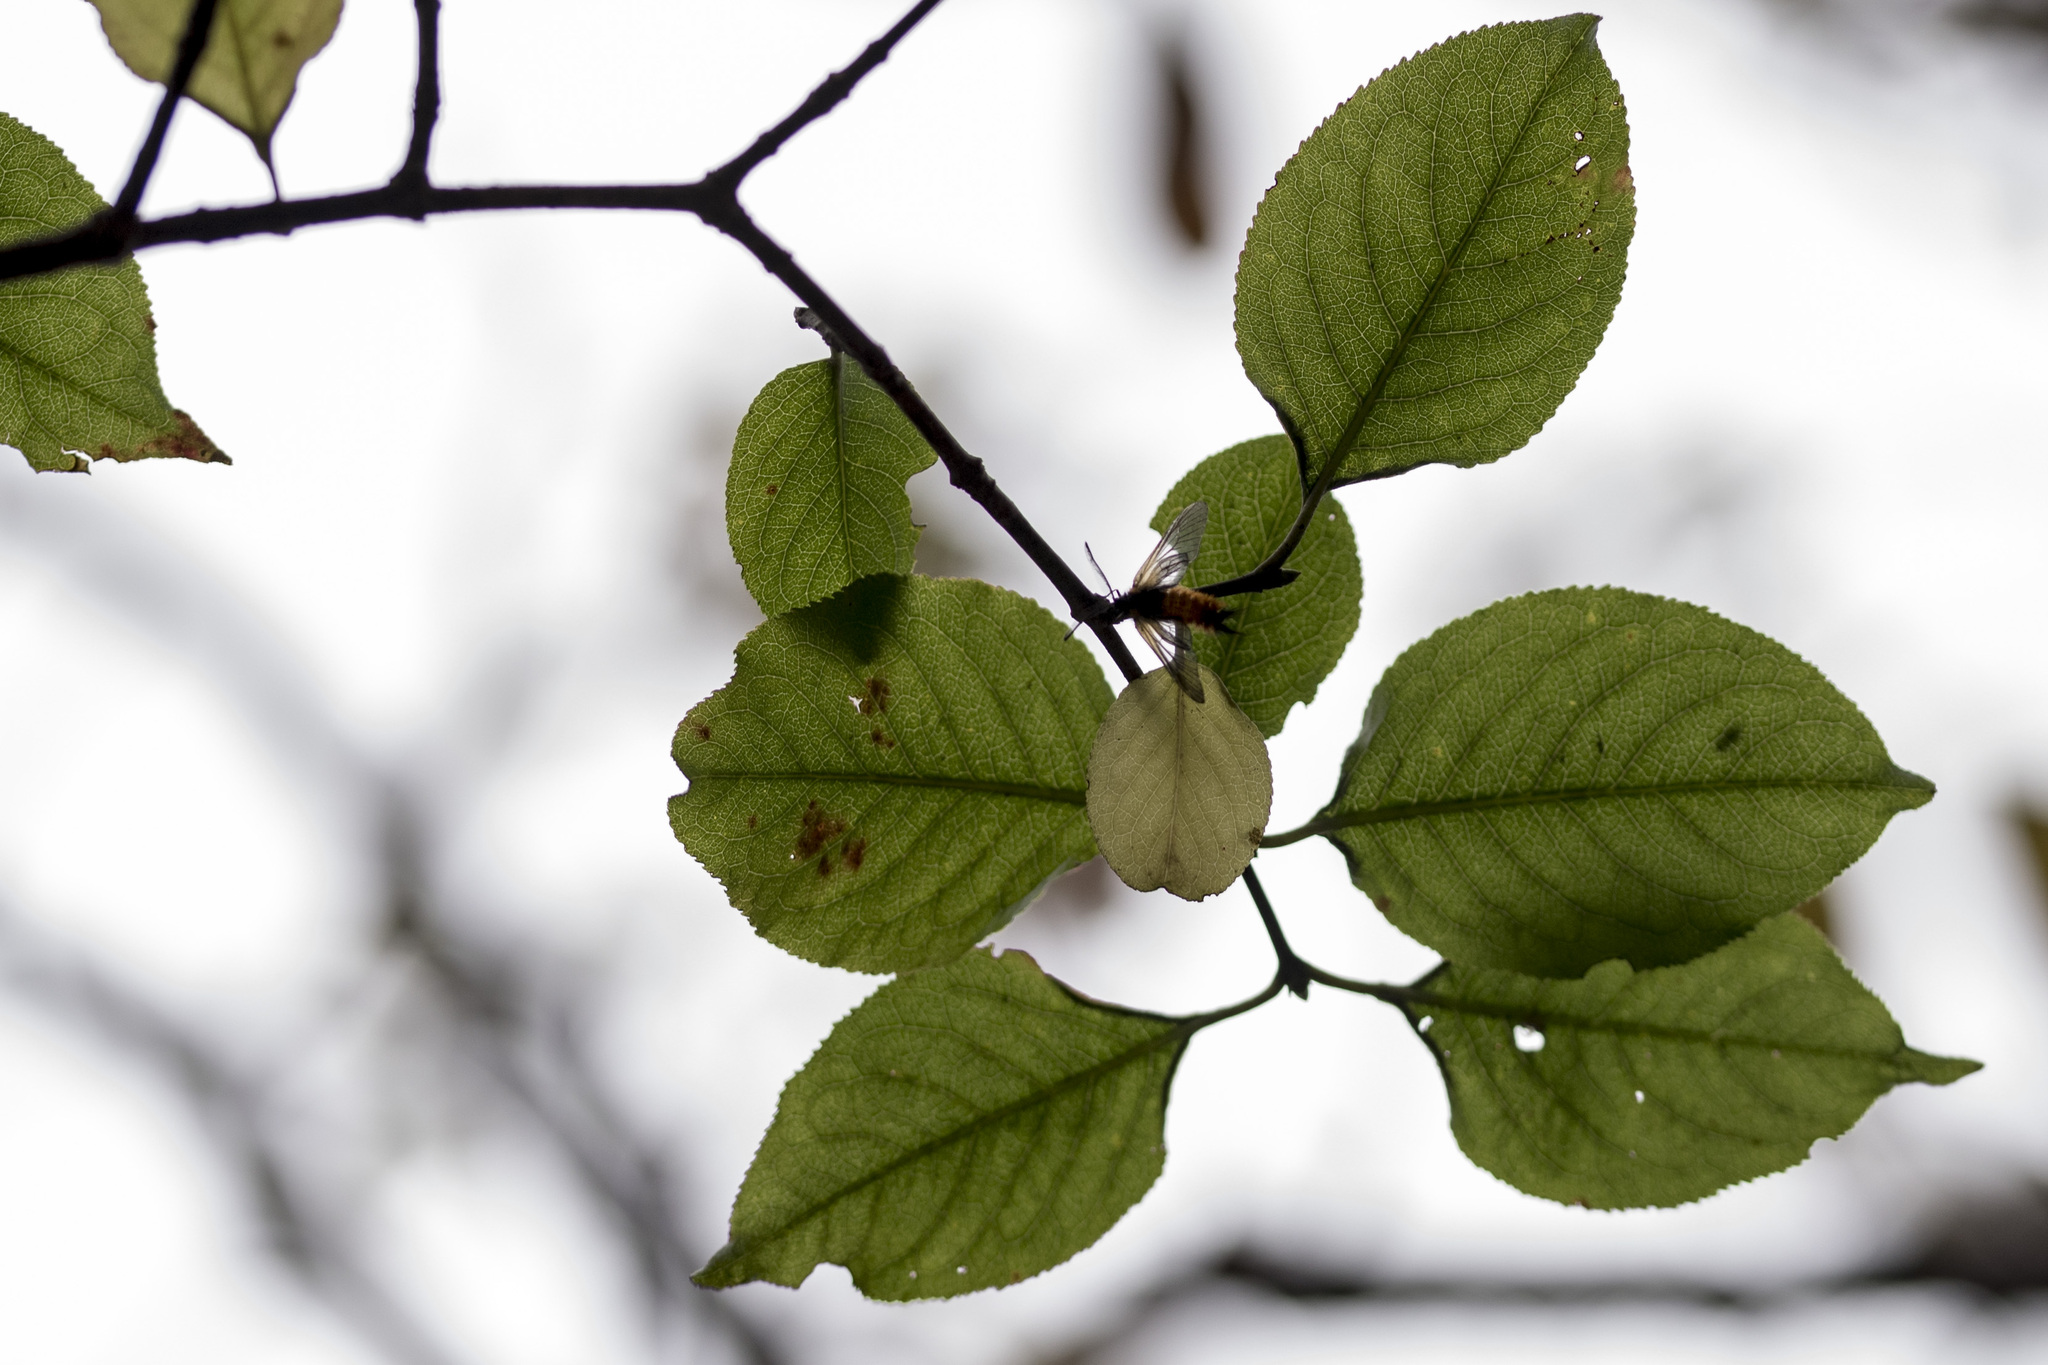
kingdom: Animalia
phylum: Arthropoda
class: Insecta
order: Lepidoptera
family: Zygaenidae
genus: Sinica
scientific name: Sinica sinica
